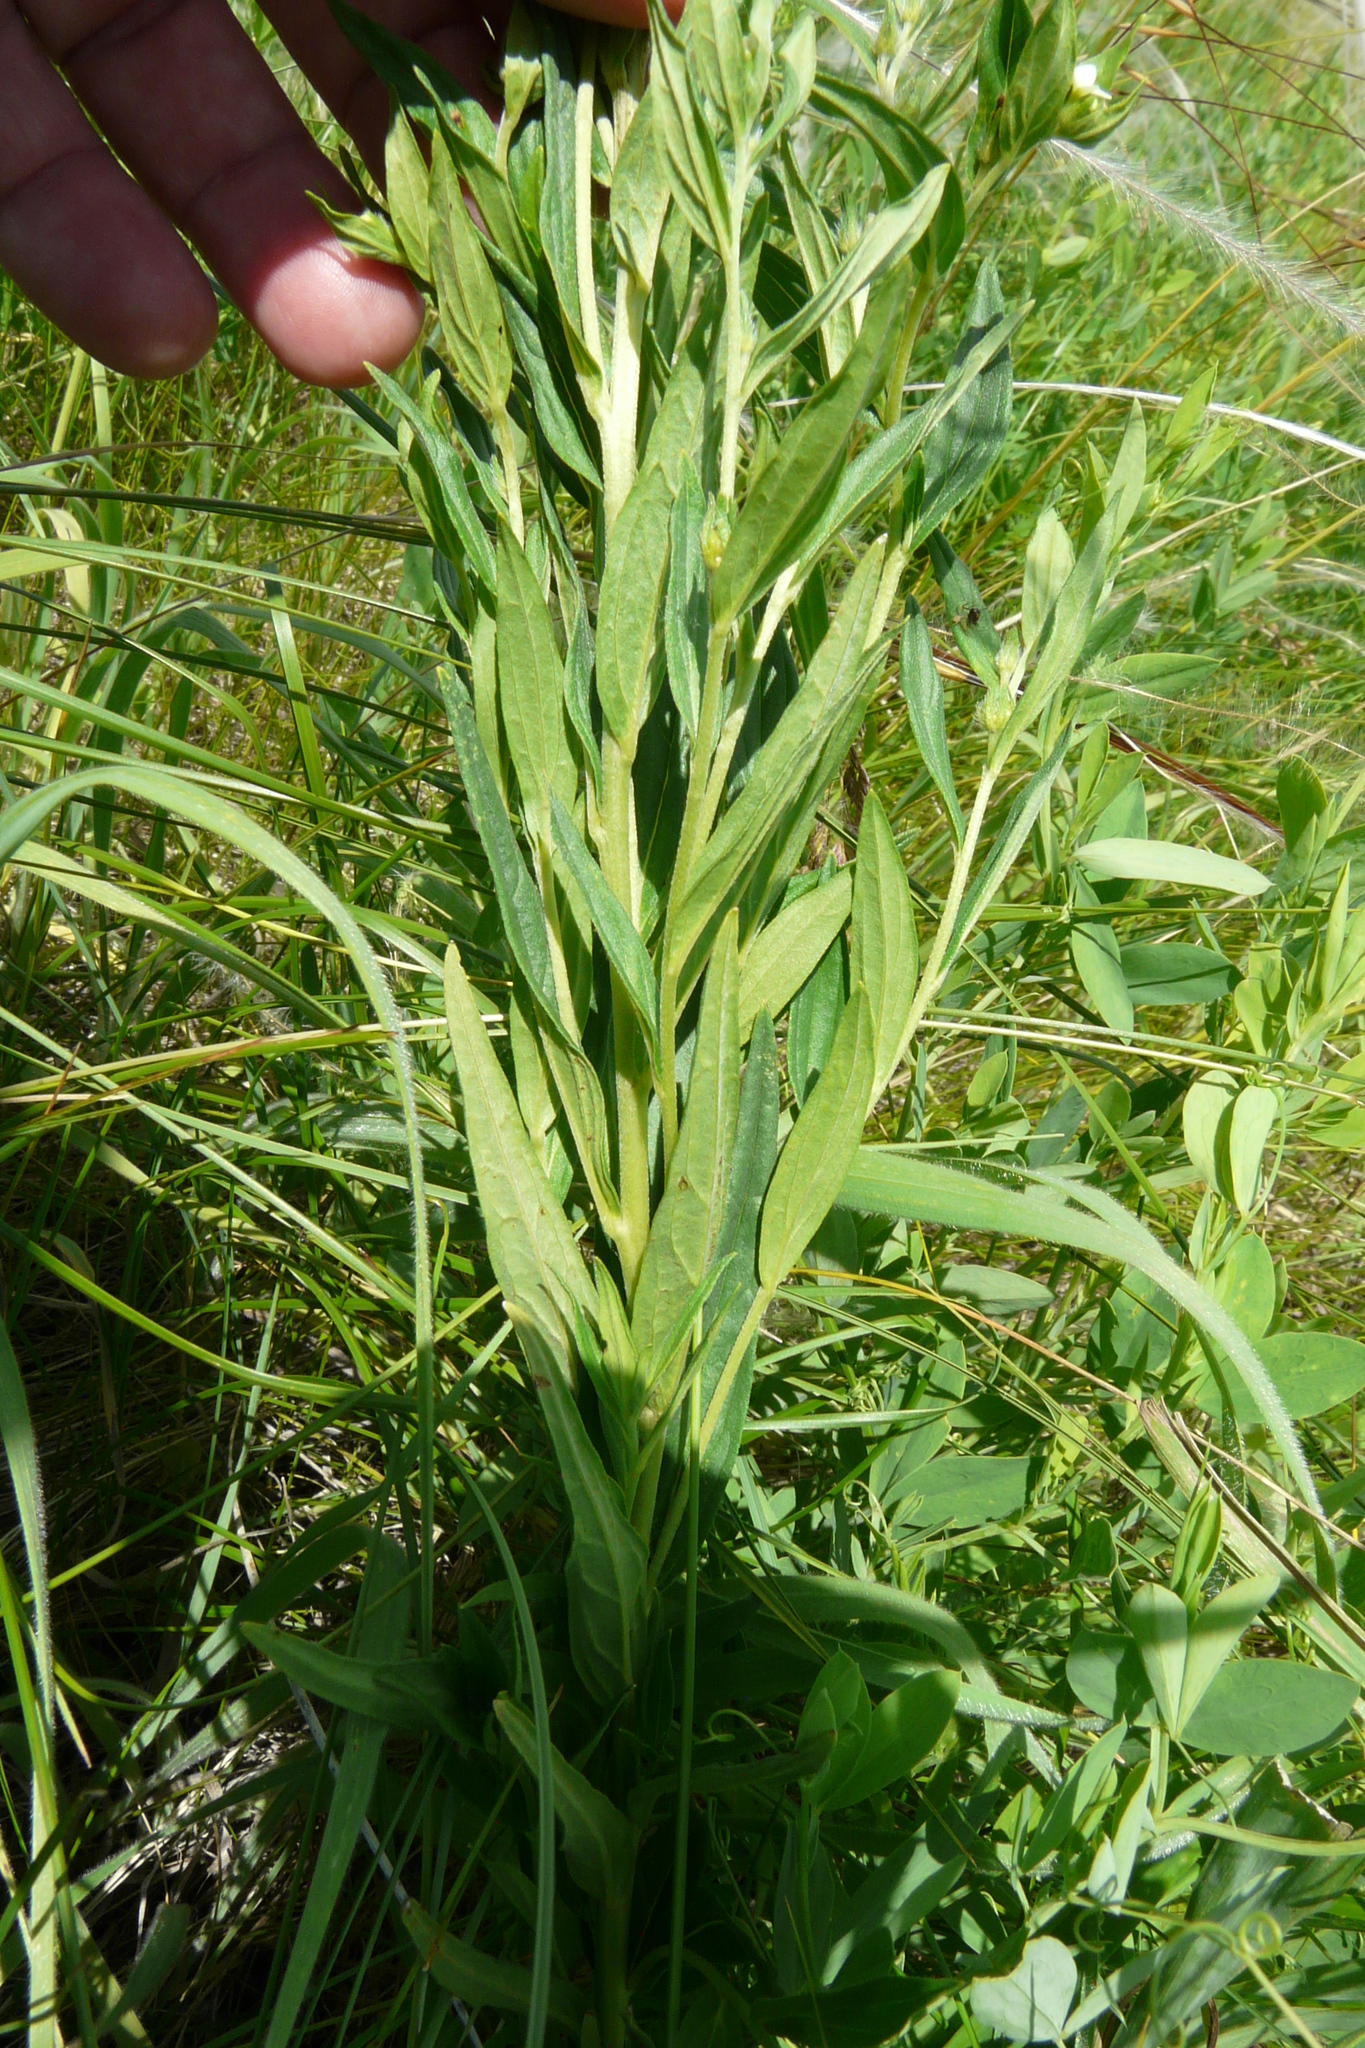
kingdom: Plantae
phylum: Tracheophyta
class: Magnoliopsida
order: Boraginales
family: Boraginaceae
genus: Lithospermum
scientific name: Lithospermum officinale
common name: Common gromwell
